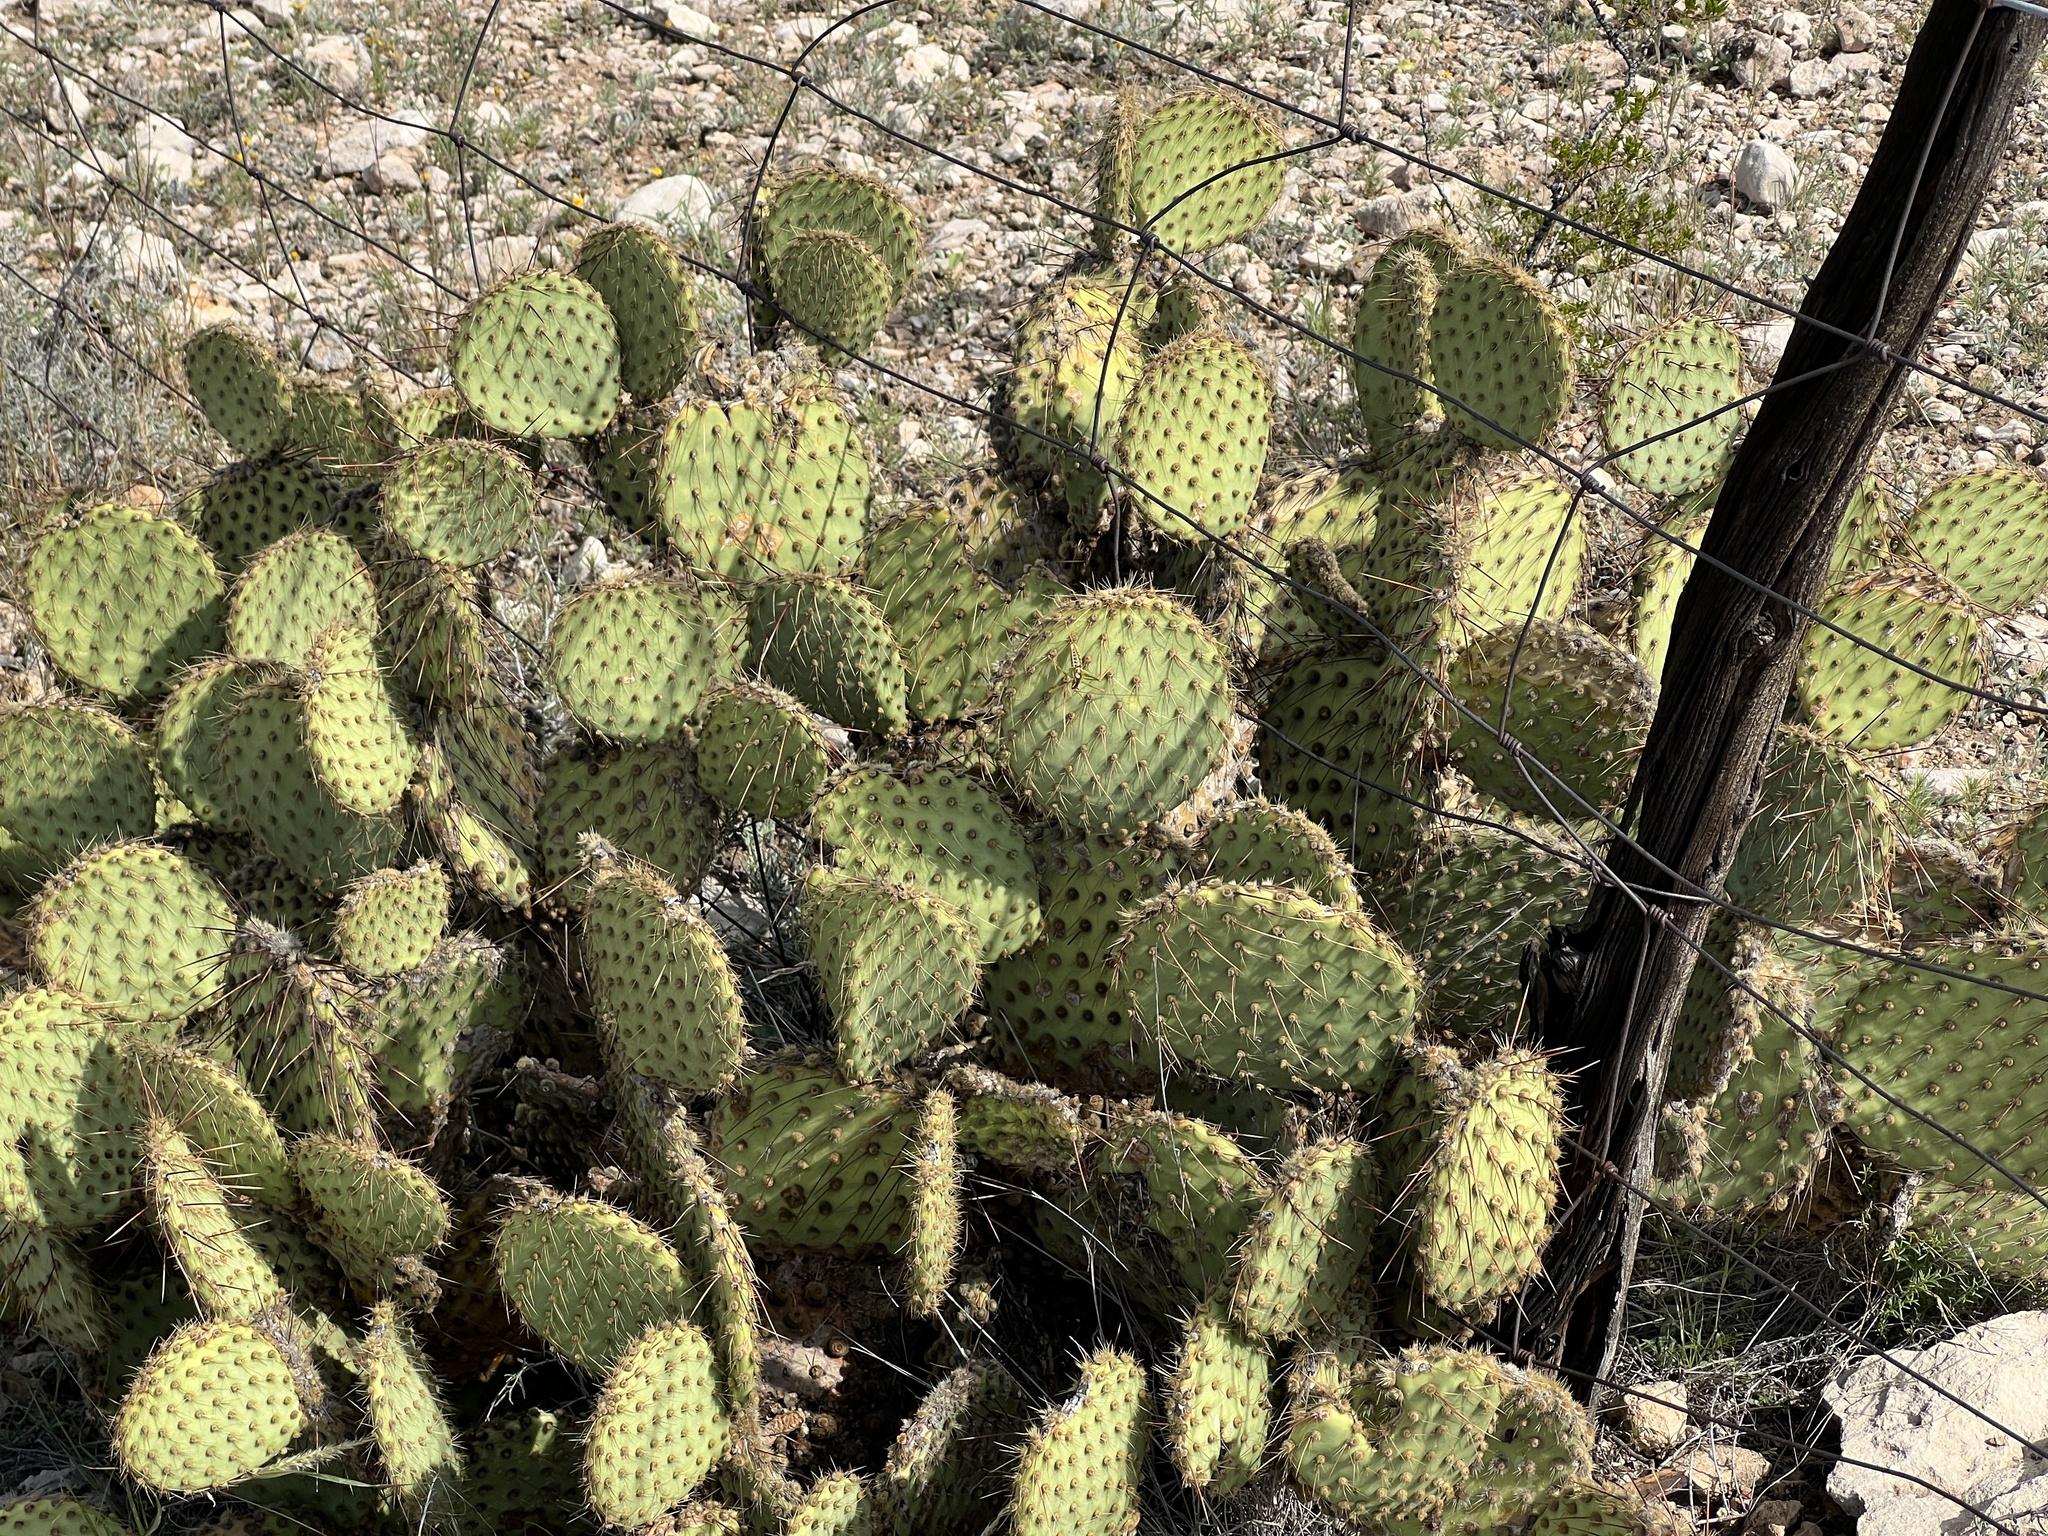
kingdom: Plantae
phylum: Tracheophyta
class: Magnoliopsida
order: Caryophyllales
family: Cactaceae
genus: Opuntia
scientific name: Opuntia strigil
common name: Marble-fruit prickly-pear
